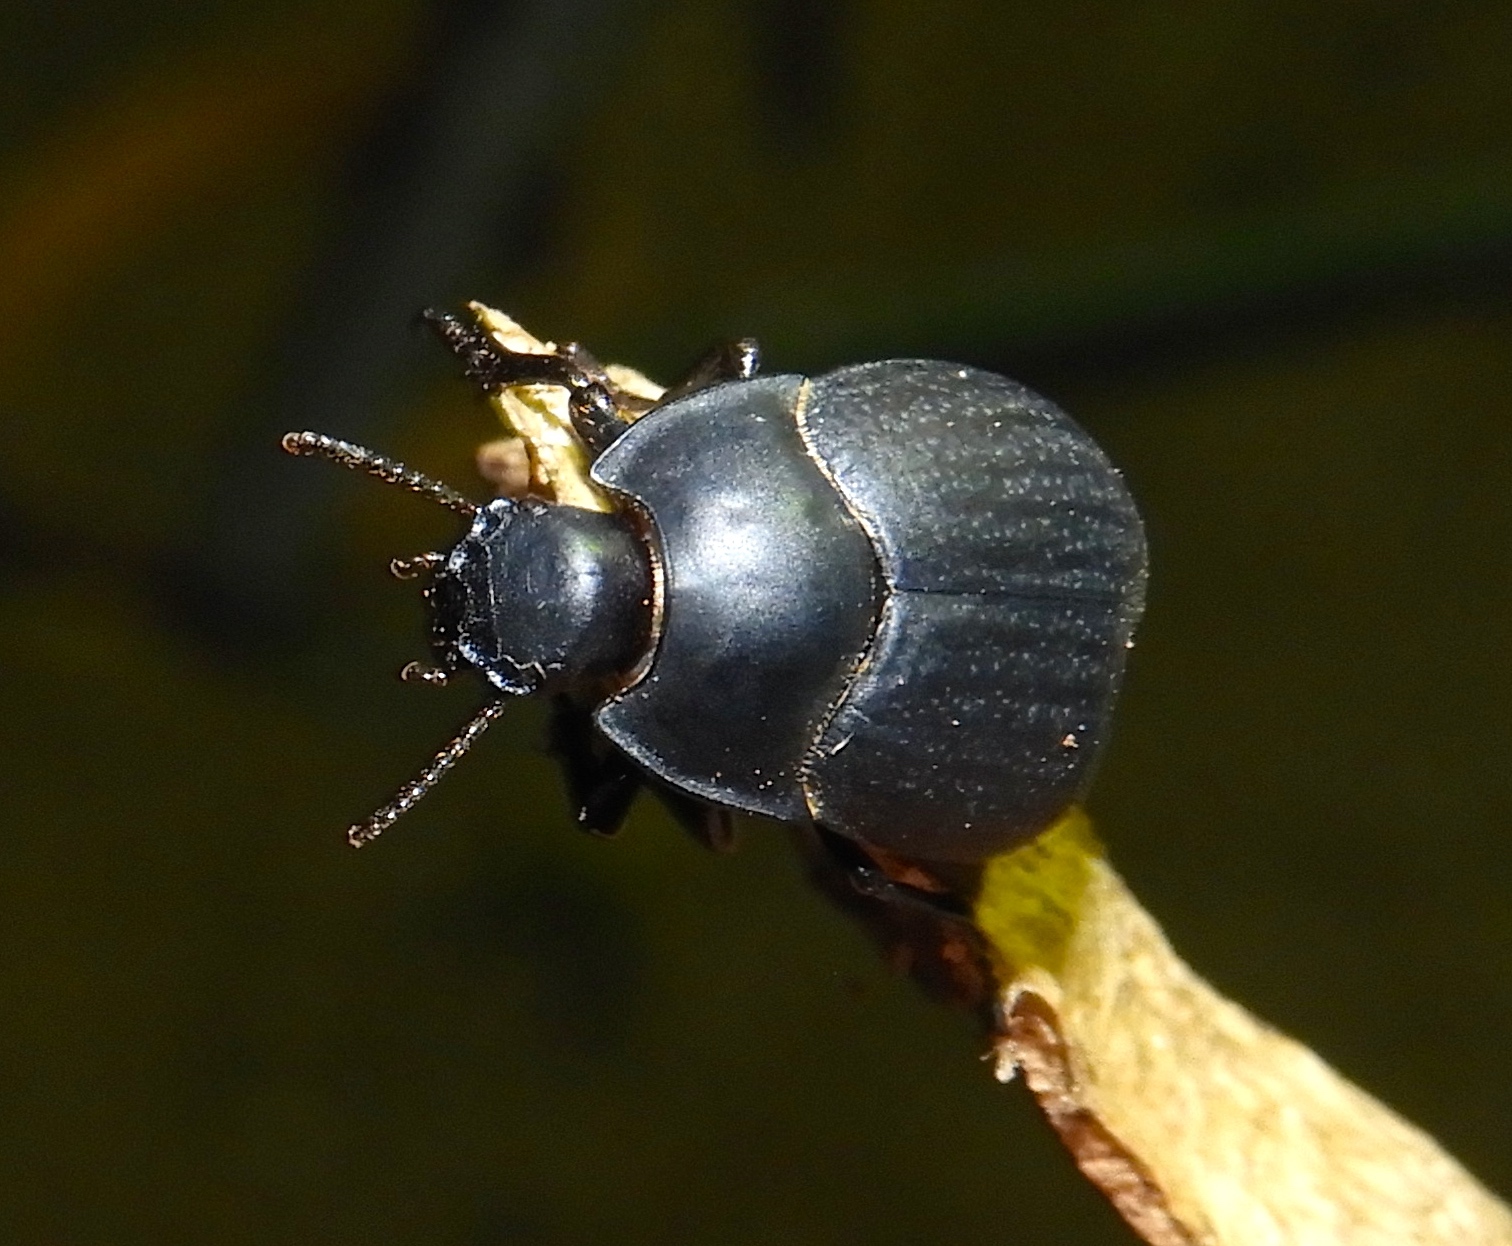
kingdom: Animalia
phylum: Arthropoda
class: Insecta
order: Coleoptera
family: Tenebrionidae
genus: Eusattus
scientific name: Eusattus
